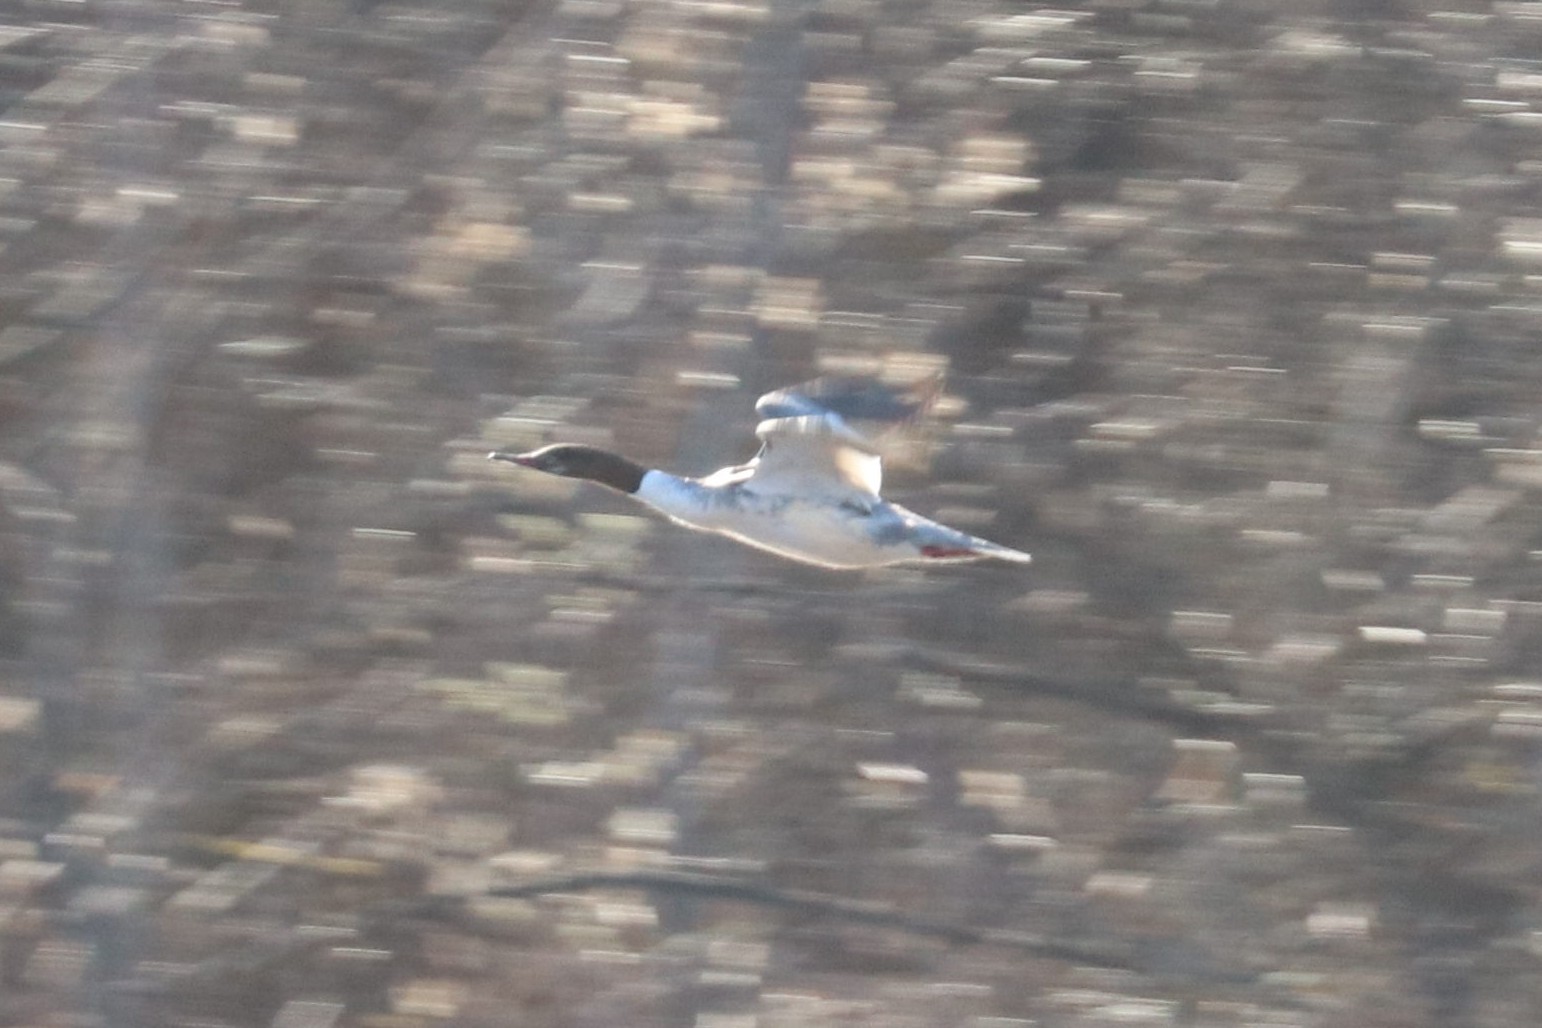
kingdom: Animalia
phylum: Chordata
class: Aves
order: Anseriformes
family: Anatidae
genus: Mergus
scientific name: Mergus merganser
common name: Common merganser
